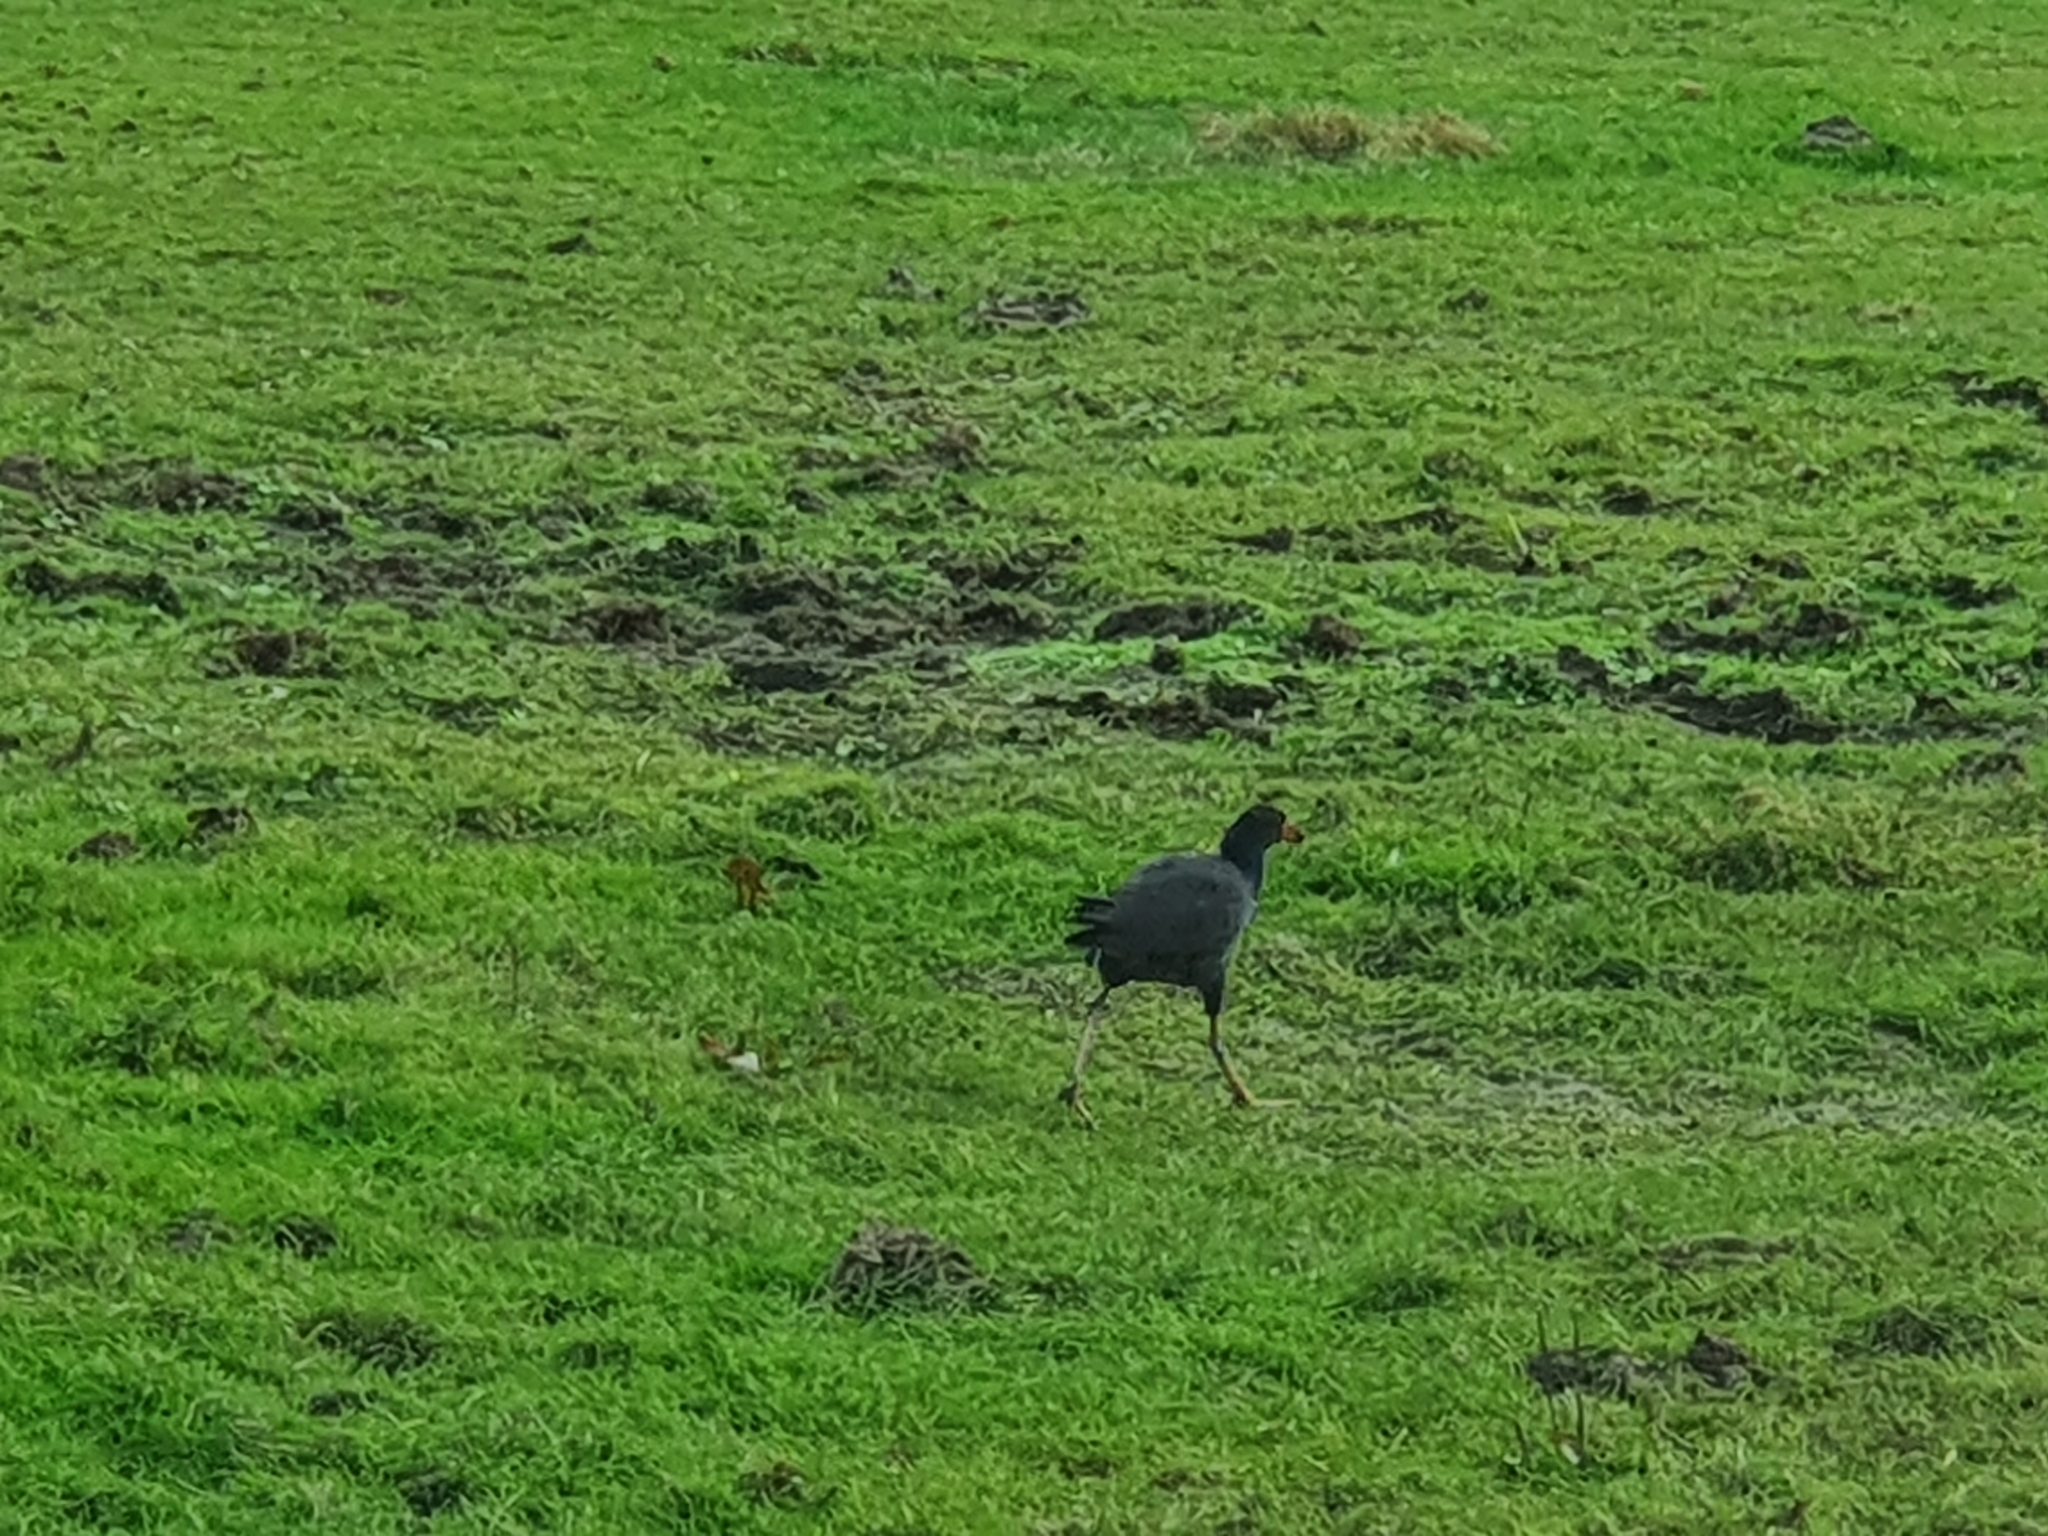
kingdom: Animalia
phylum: Chordata
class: Aves
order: Gruiformes
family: Rallidae
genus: Porphyrio
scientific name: Porphyrio melanotus
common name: Australasian swamphen
